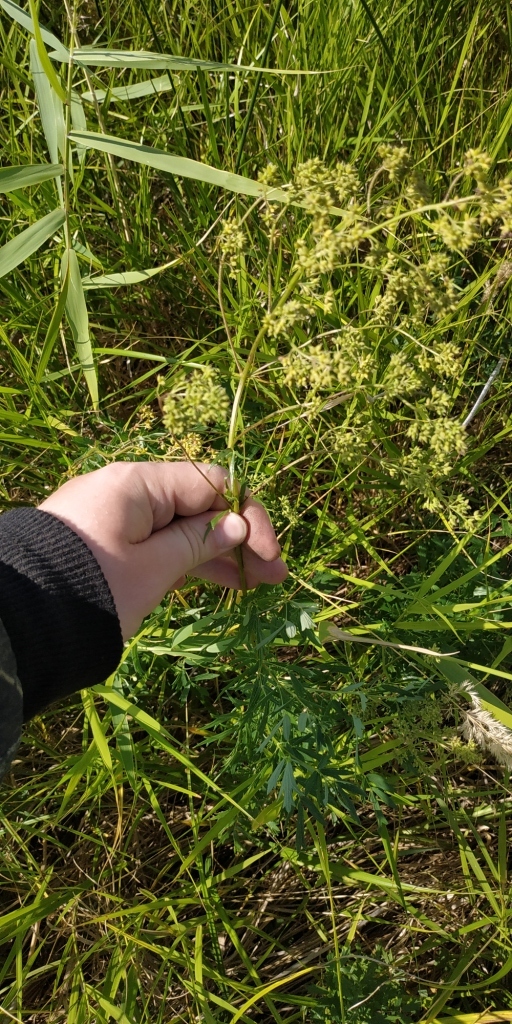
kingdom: Plantae
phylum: Tracheophyta
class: Magnoliopsida
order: Ranunculales
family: Ranunculaceae
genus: Thalictrum
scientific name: Thalictrum simplex
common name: Small meadow-rue
